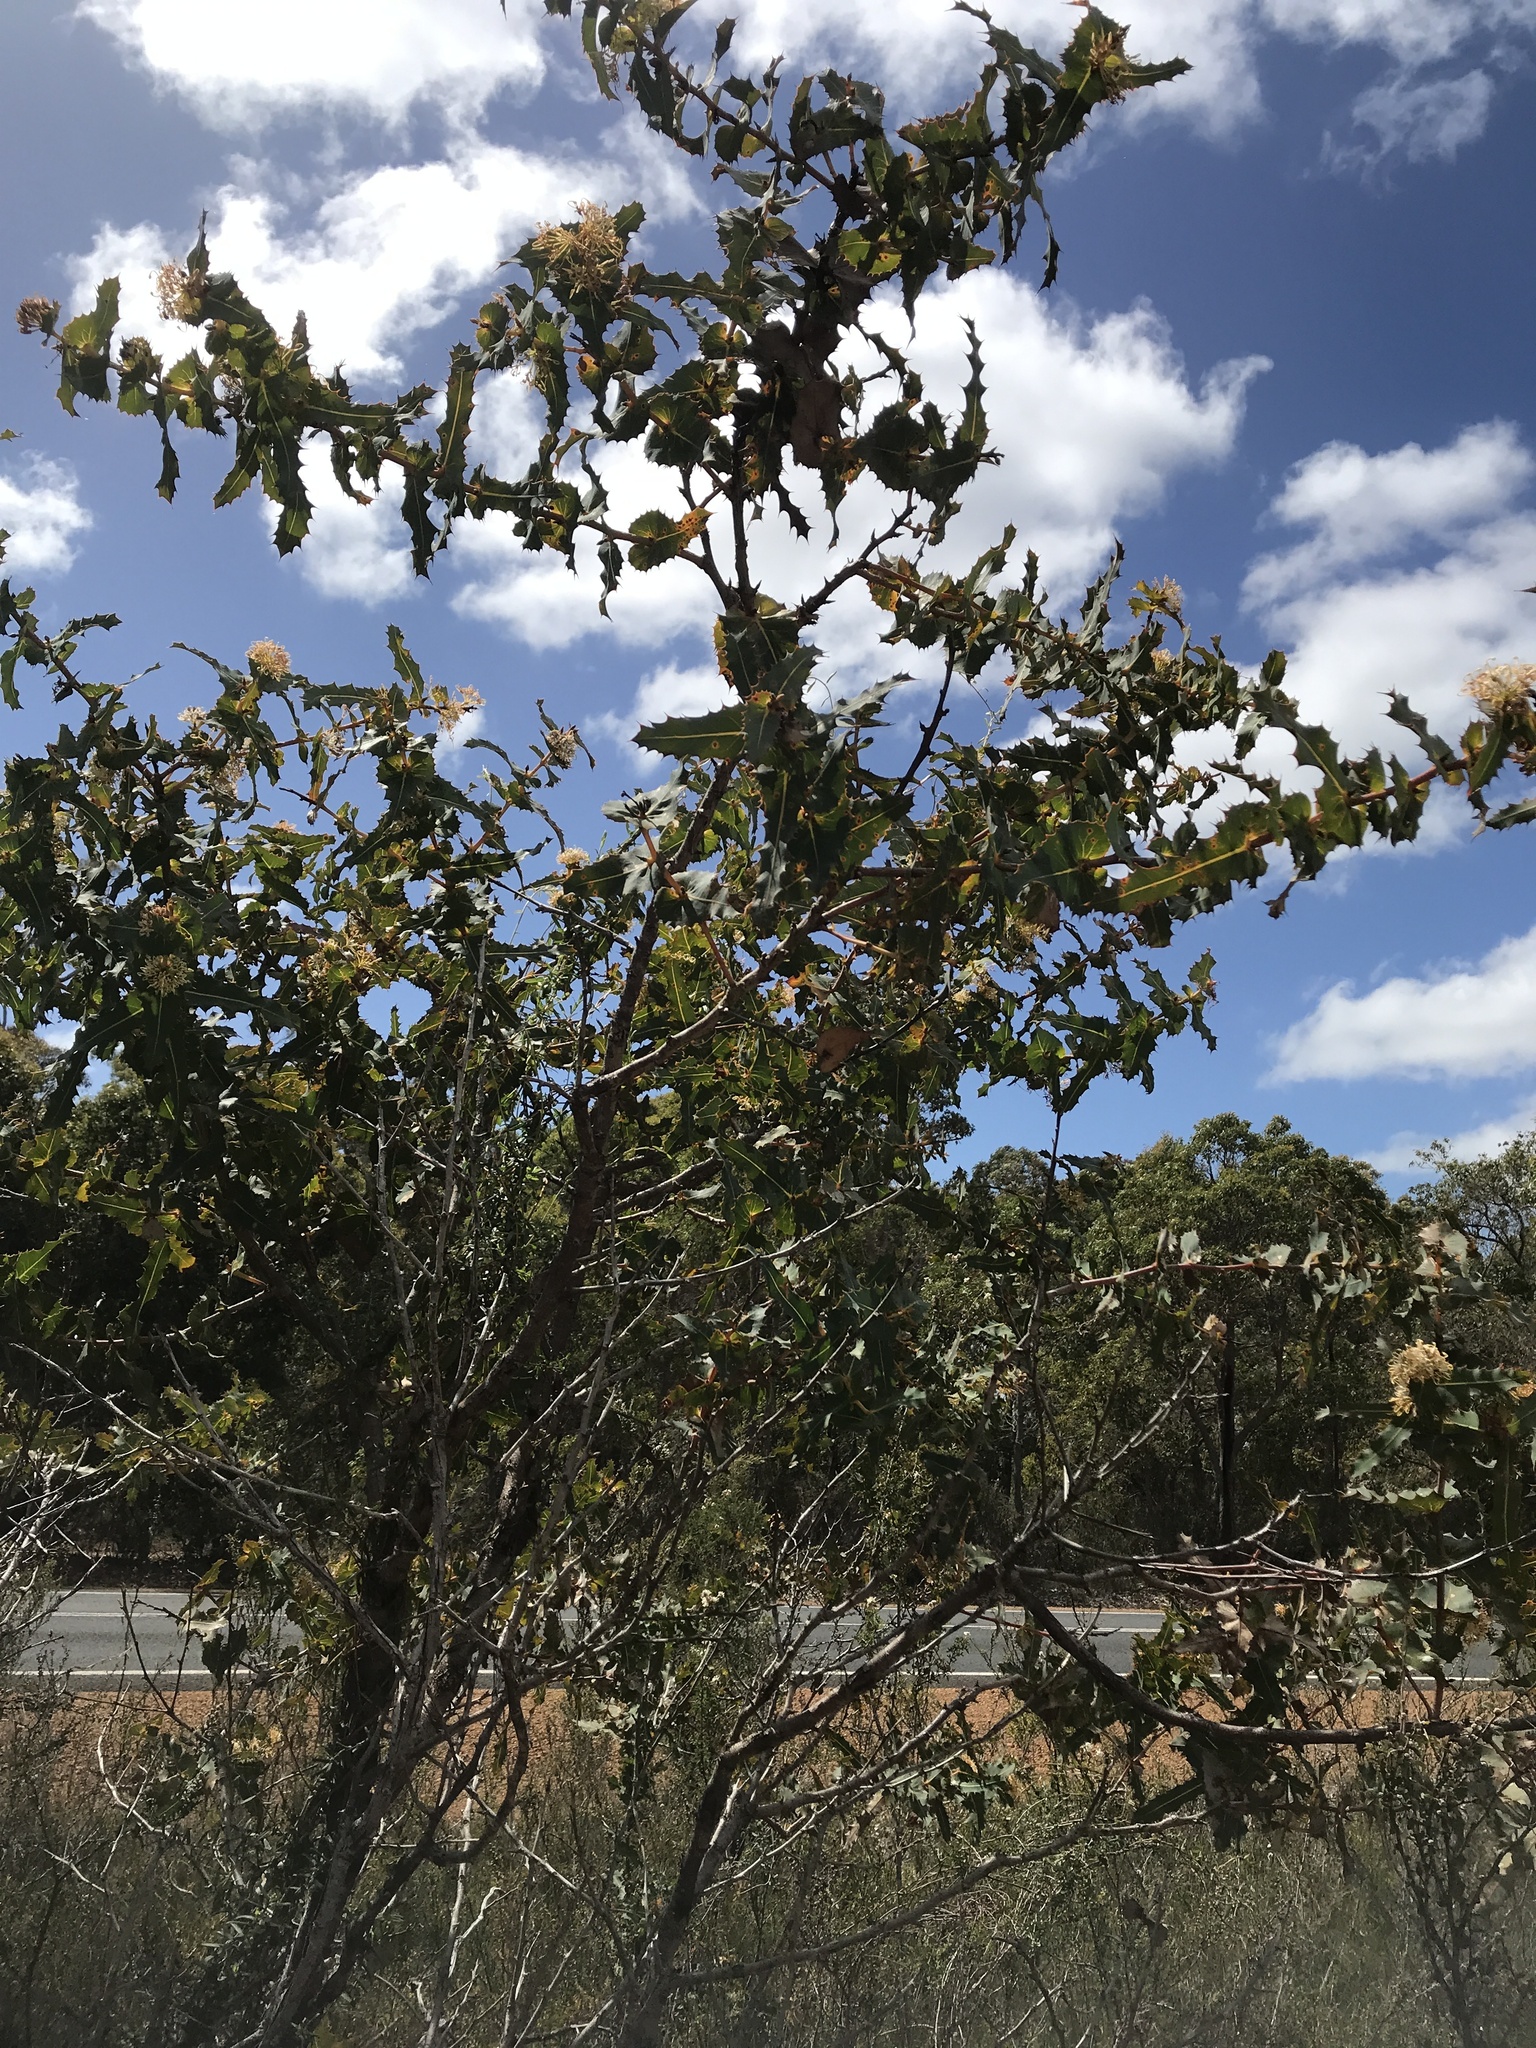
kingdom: Plantae
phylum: Tracheophyta
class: Magnoliopsida
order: Proteales
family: Proteaceae
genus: Hakea
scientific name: Hakea amplexicaulis
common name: Prickly hakea
